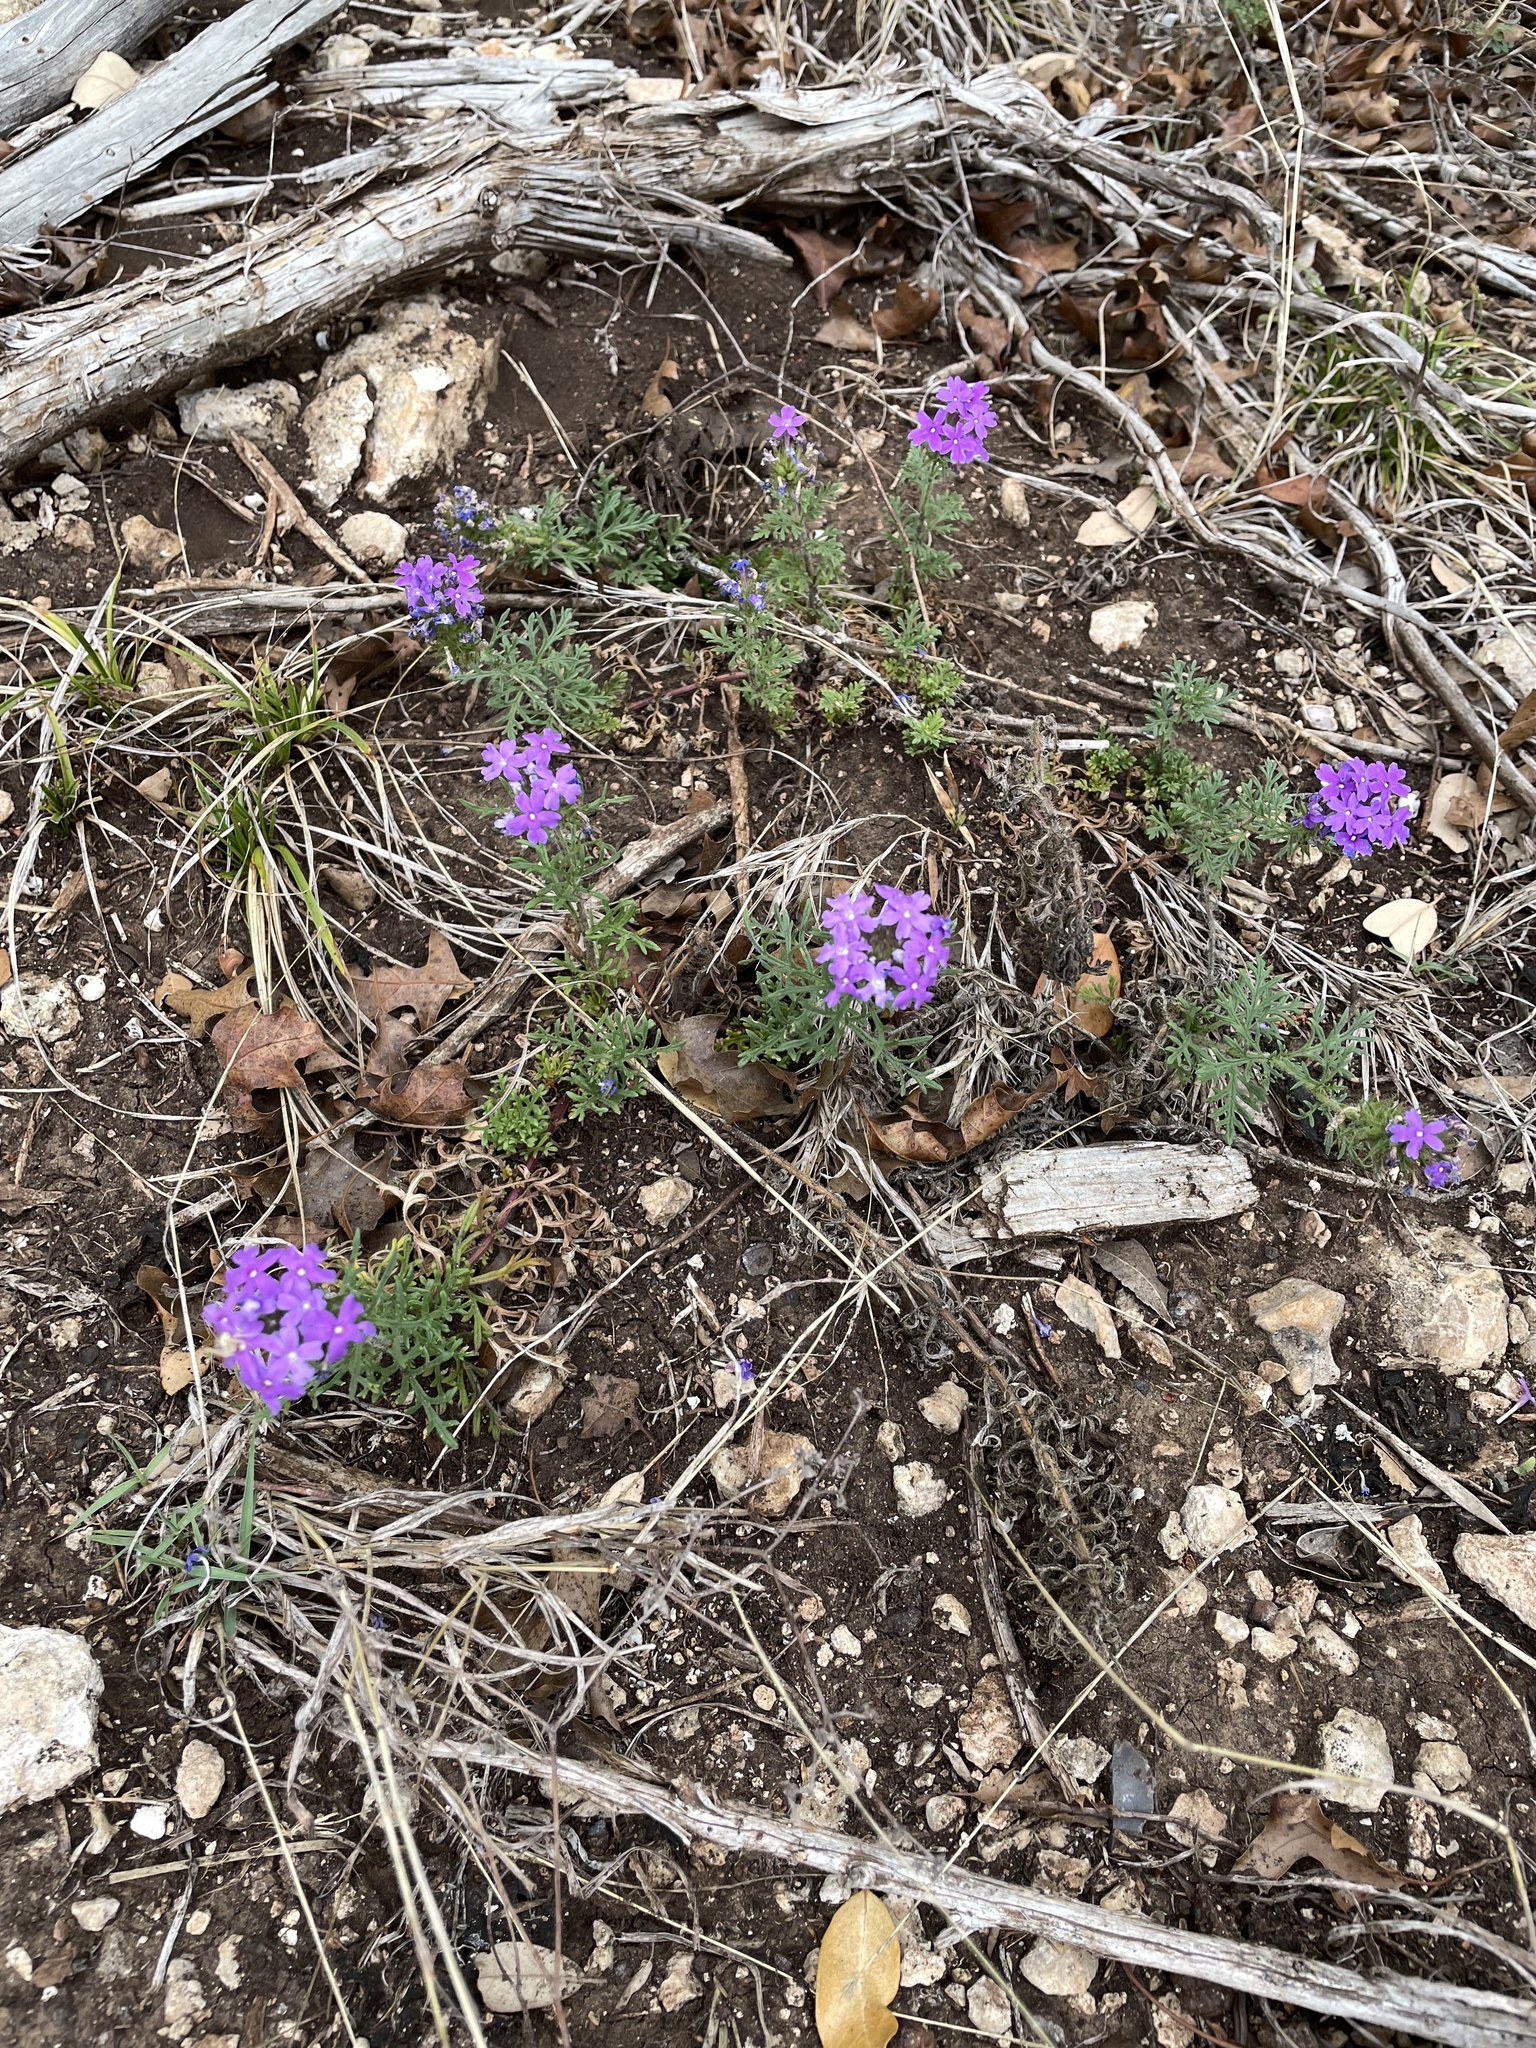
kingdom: Plantae
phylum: Tracheophyta
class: Magnoliopsida
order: Lamiales
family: Verbenaceae
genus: Verbena
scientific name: Verbena bipinnatifida
